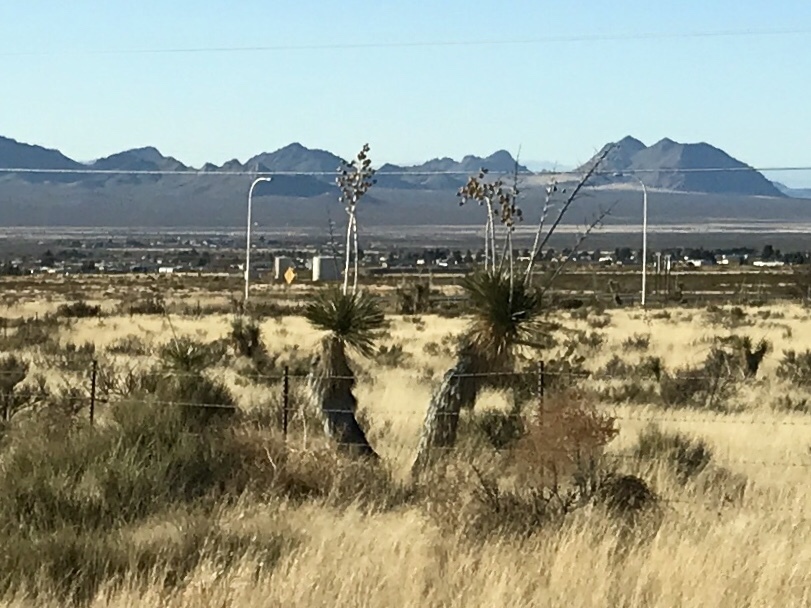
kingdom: Plantae
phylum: Tracheophyta
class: Liliopsida
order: Asparagales
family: Asparagaceae
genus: Yucca
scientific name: Yucca elata
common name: Palmella
